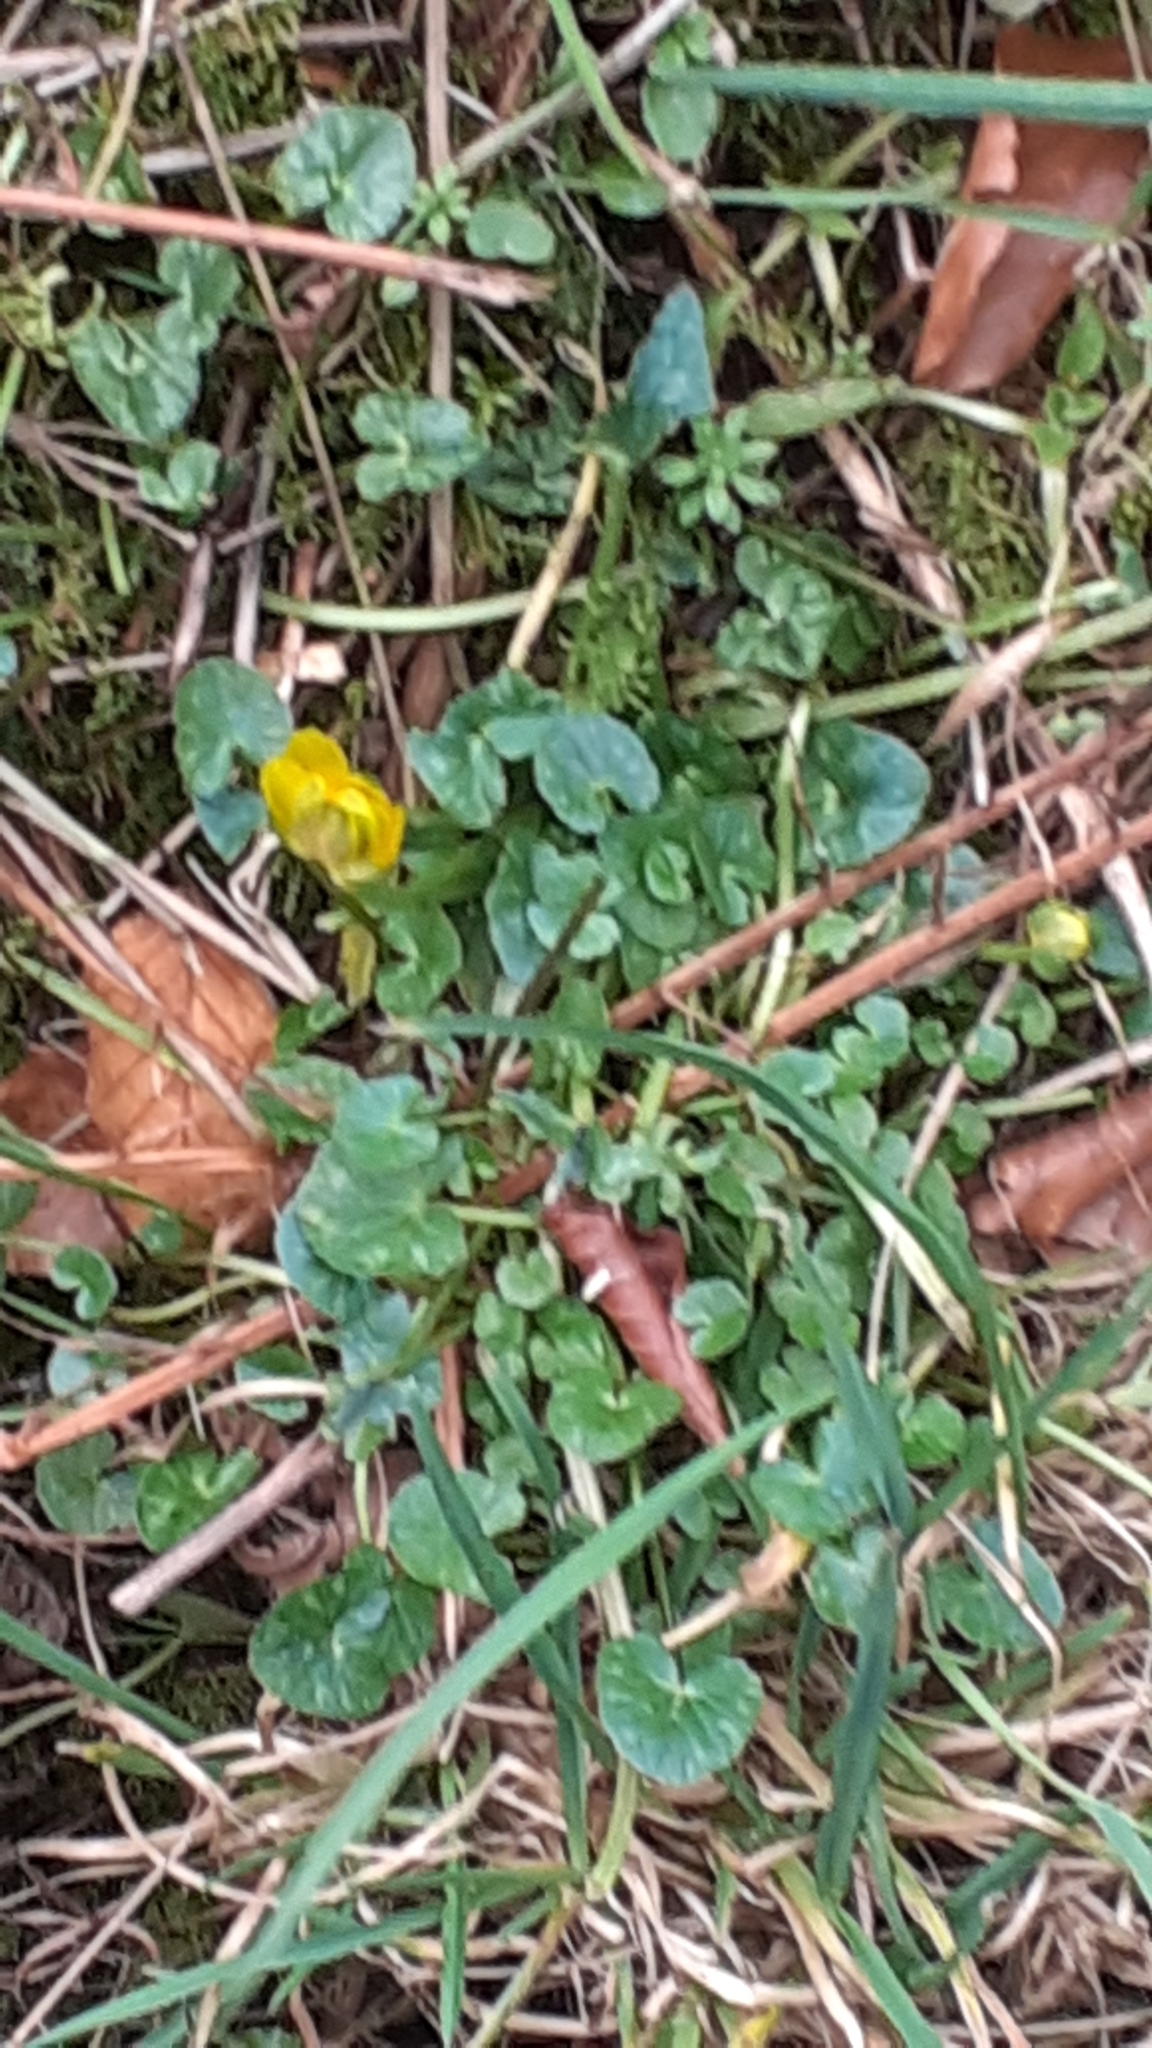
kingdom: Plantae
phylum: Tracheophyta
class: Magnoliopsida
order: Ranunculales
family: Ranunculaceae
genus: Ficaria
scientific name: Ficaria verna
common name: Lesser celandine
